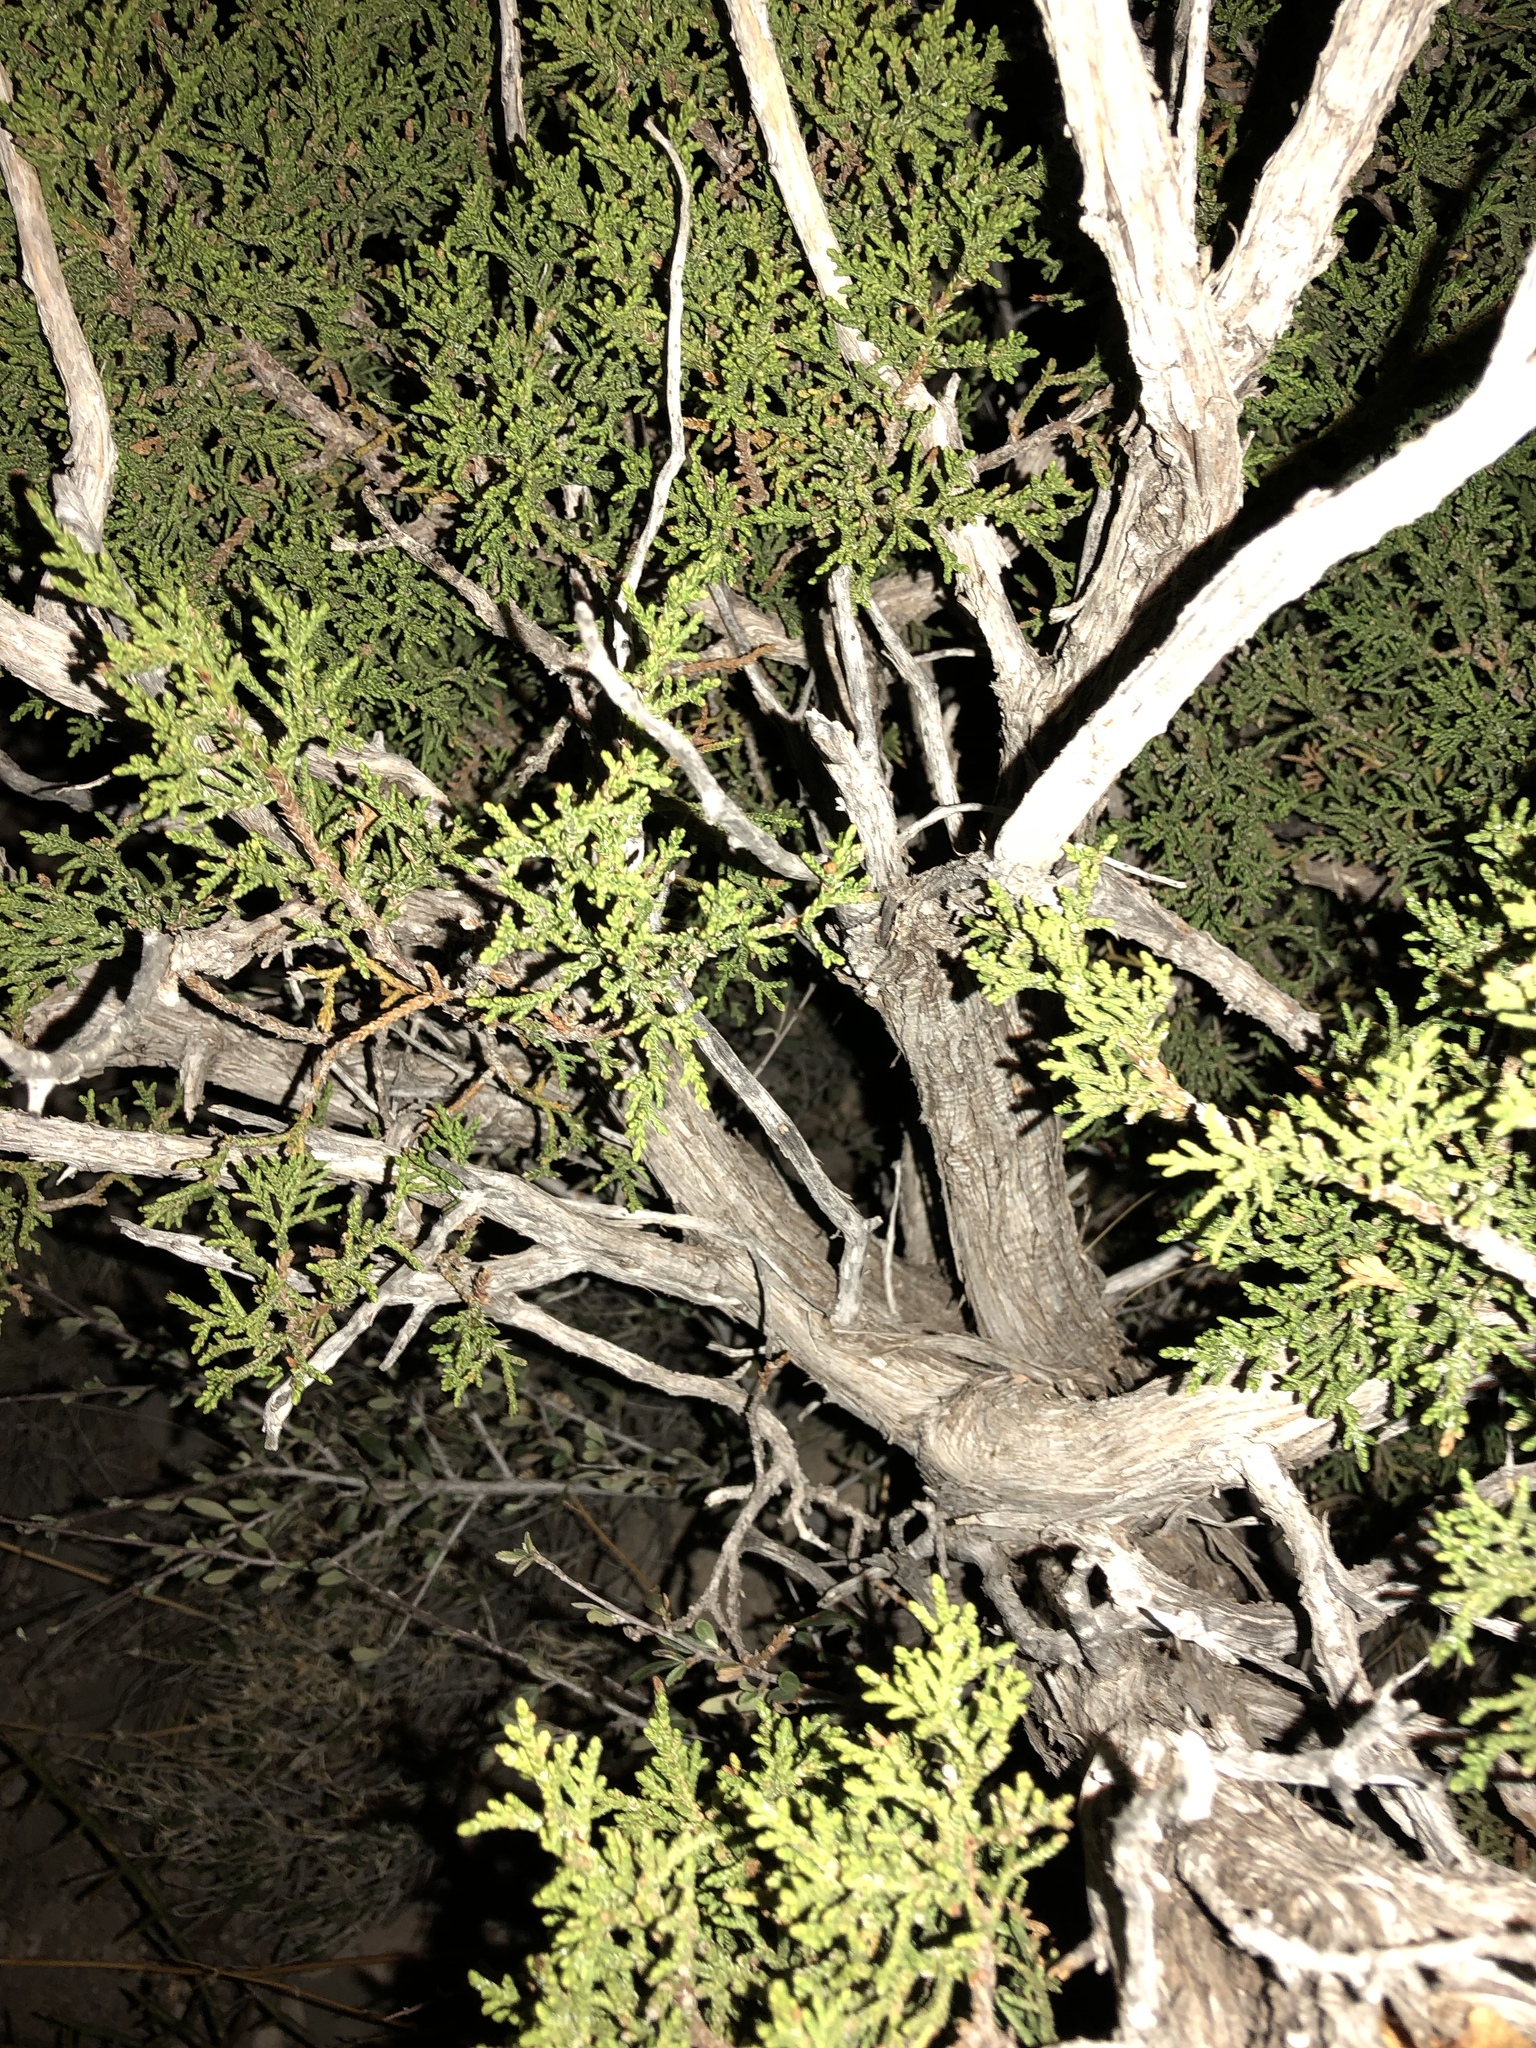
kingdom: Plantae
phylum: Tracheophyta
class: Pinopsida
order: Pinales
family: Cupressaceae
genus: Juniperus
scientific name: Juniperus monosperma
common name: One-seed juniper
